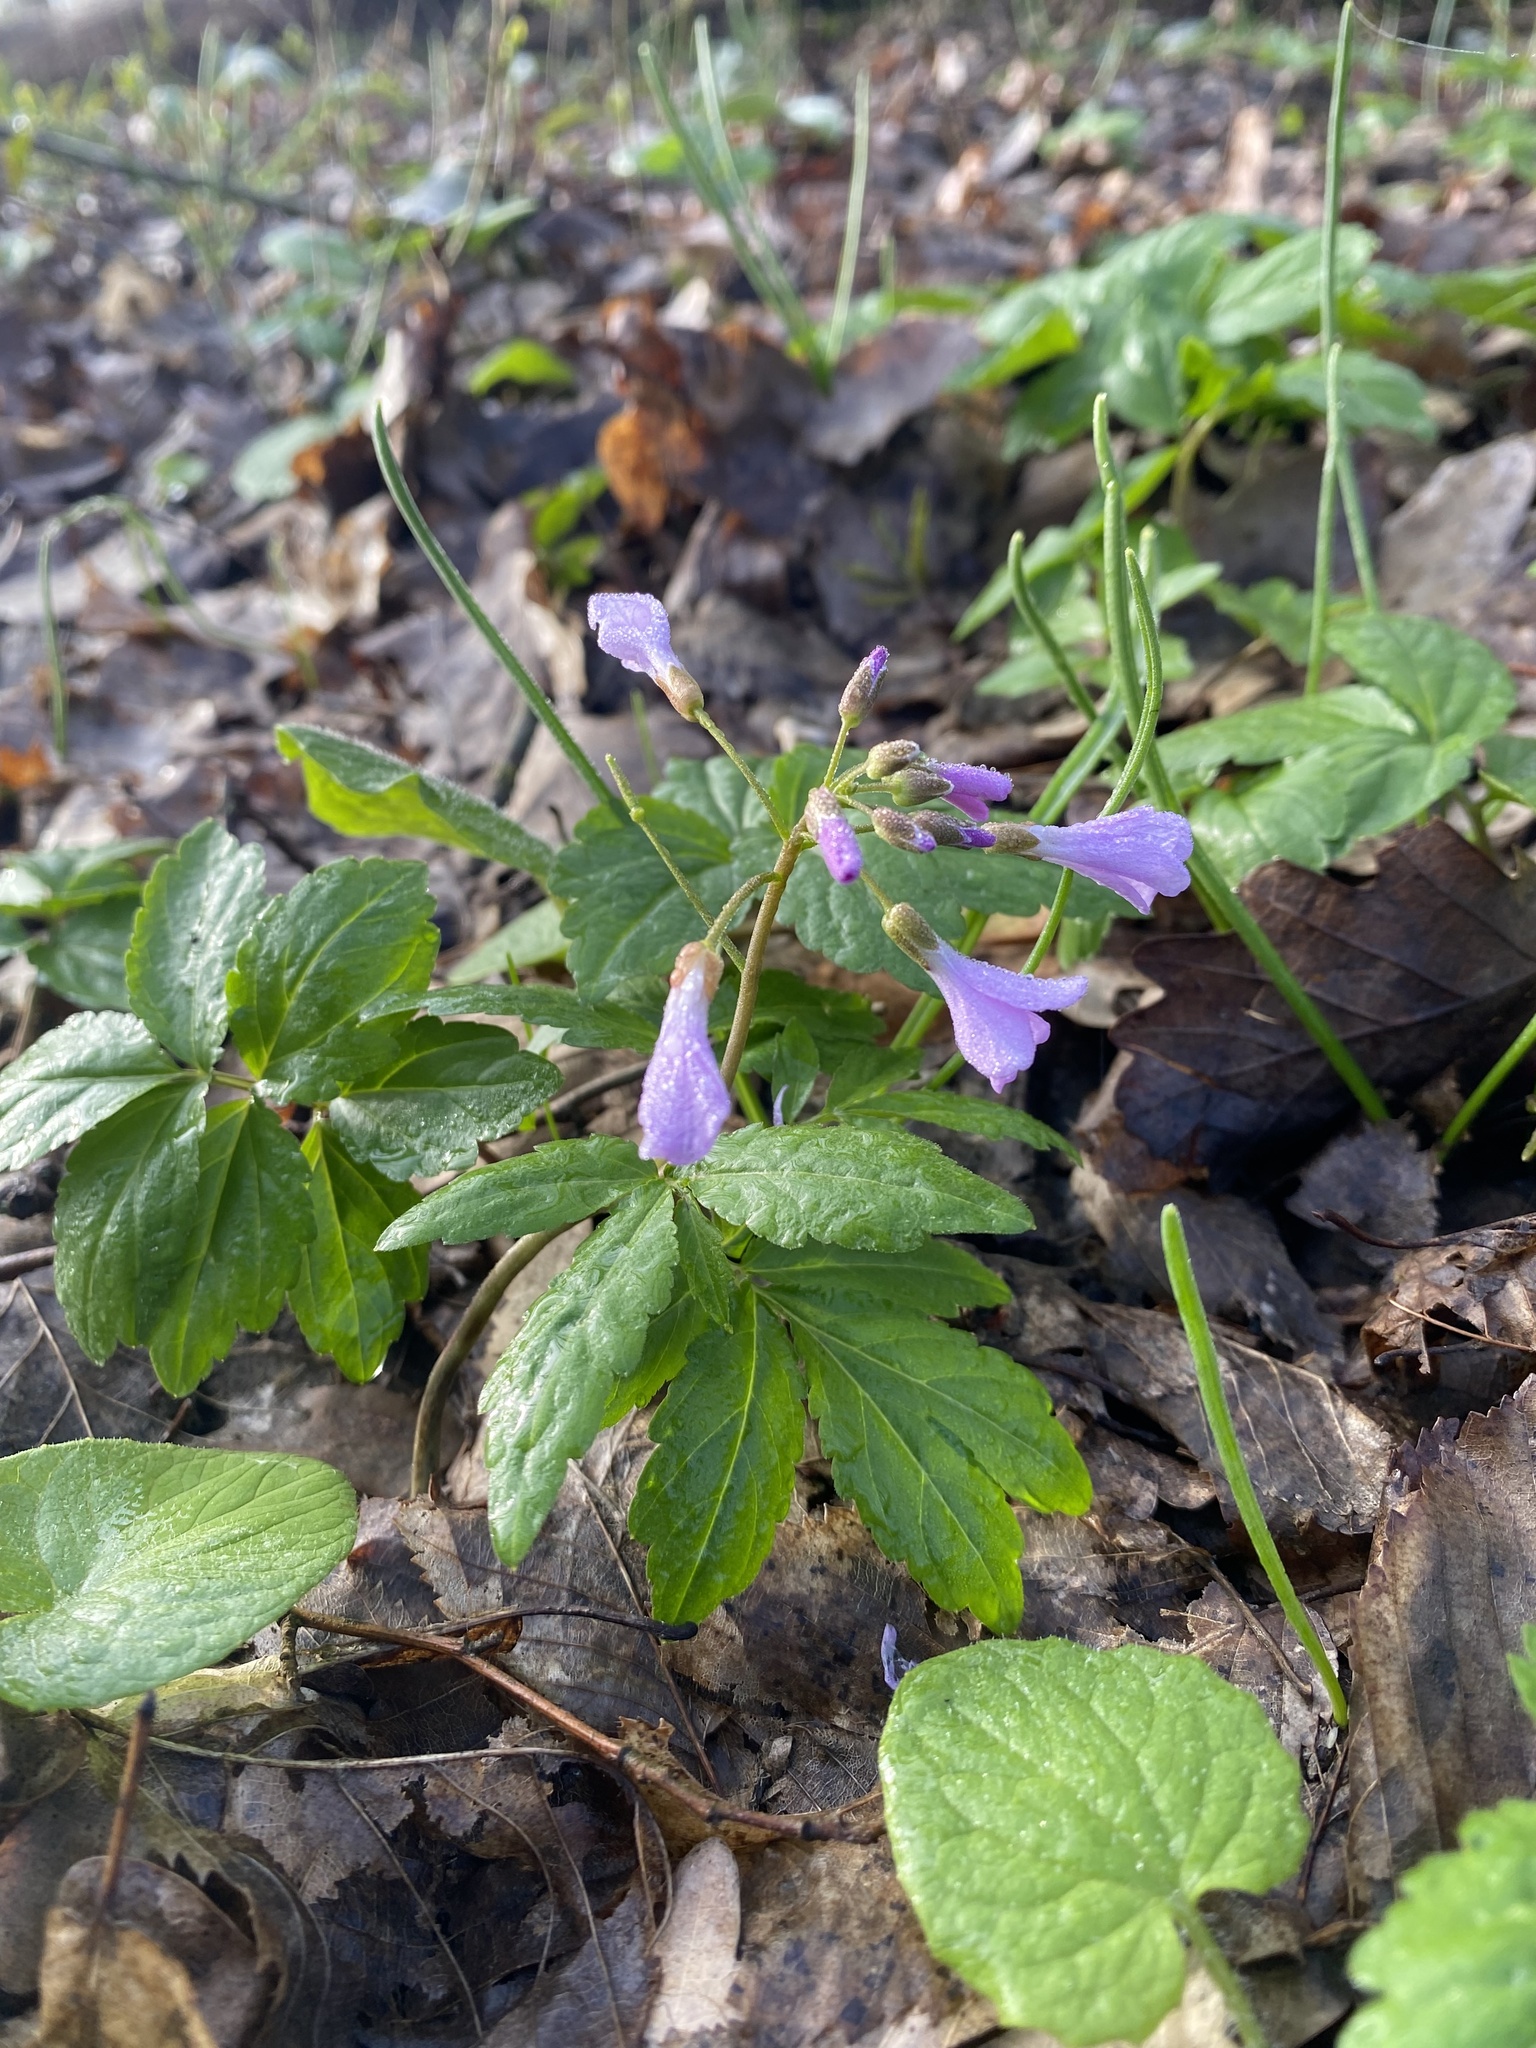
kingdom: Plantae
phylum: Tracheophyta
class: Magnoliopsida
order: Brassicales
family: Brassicaceae
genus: Cardamine
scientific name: Cardamine quinquefolia
